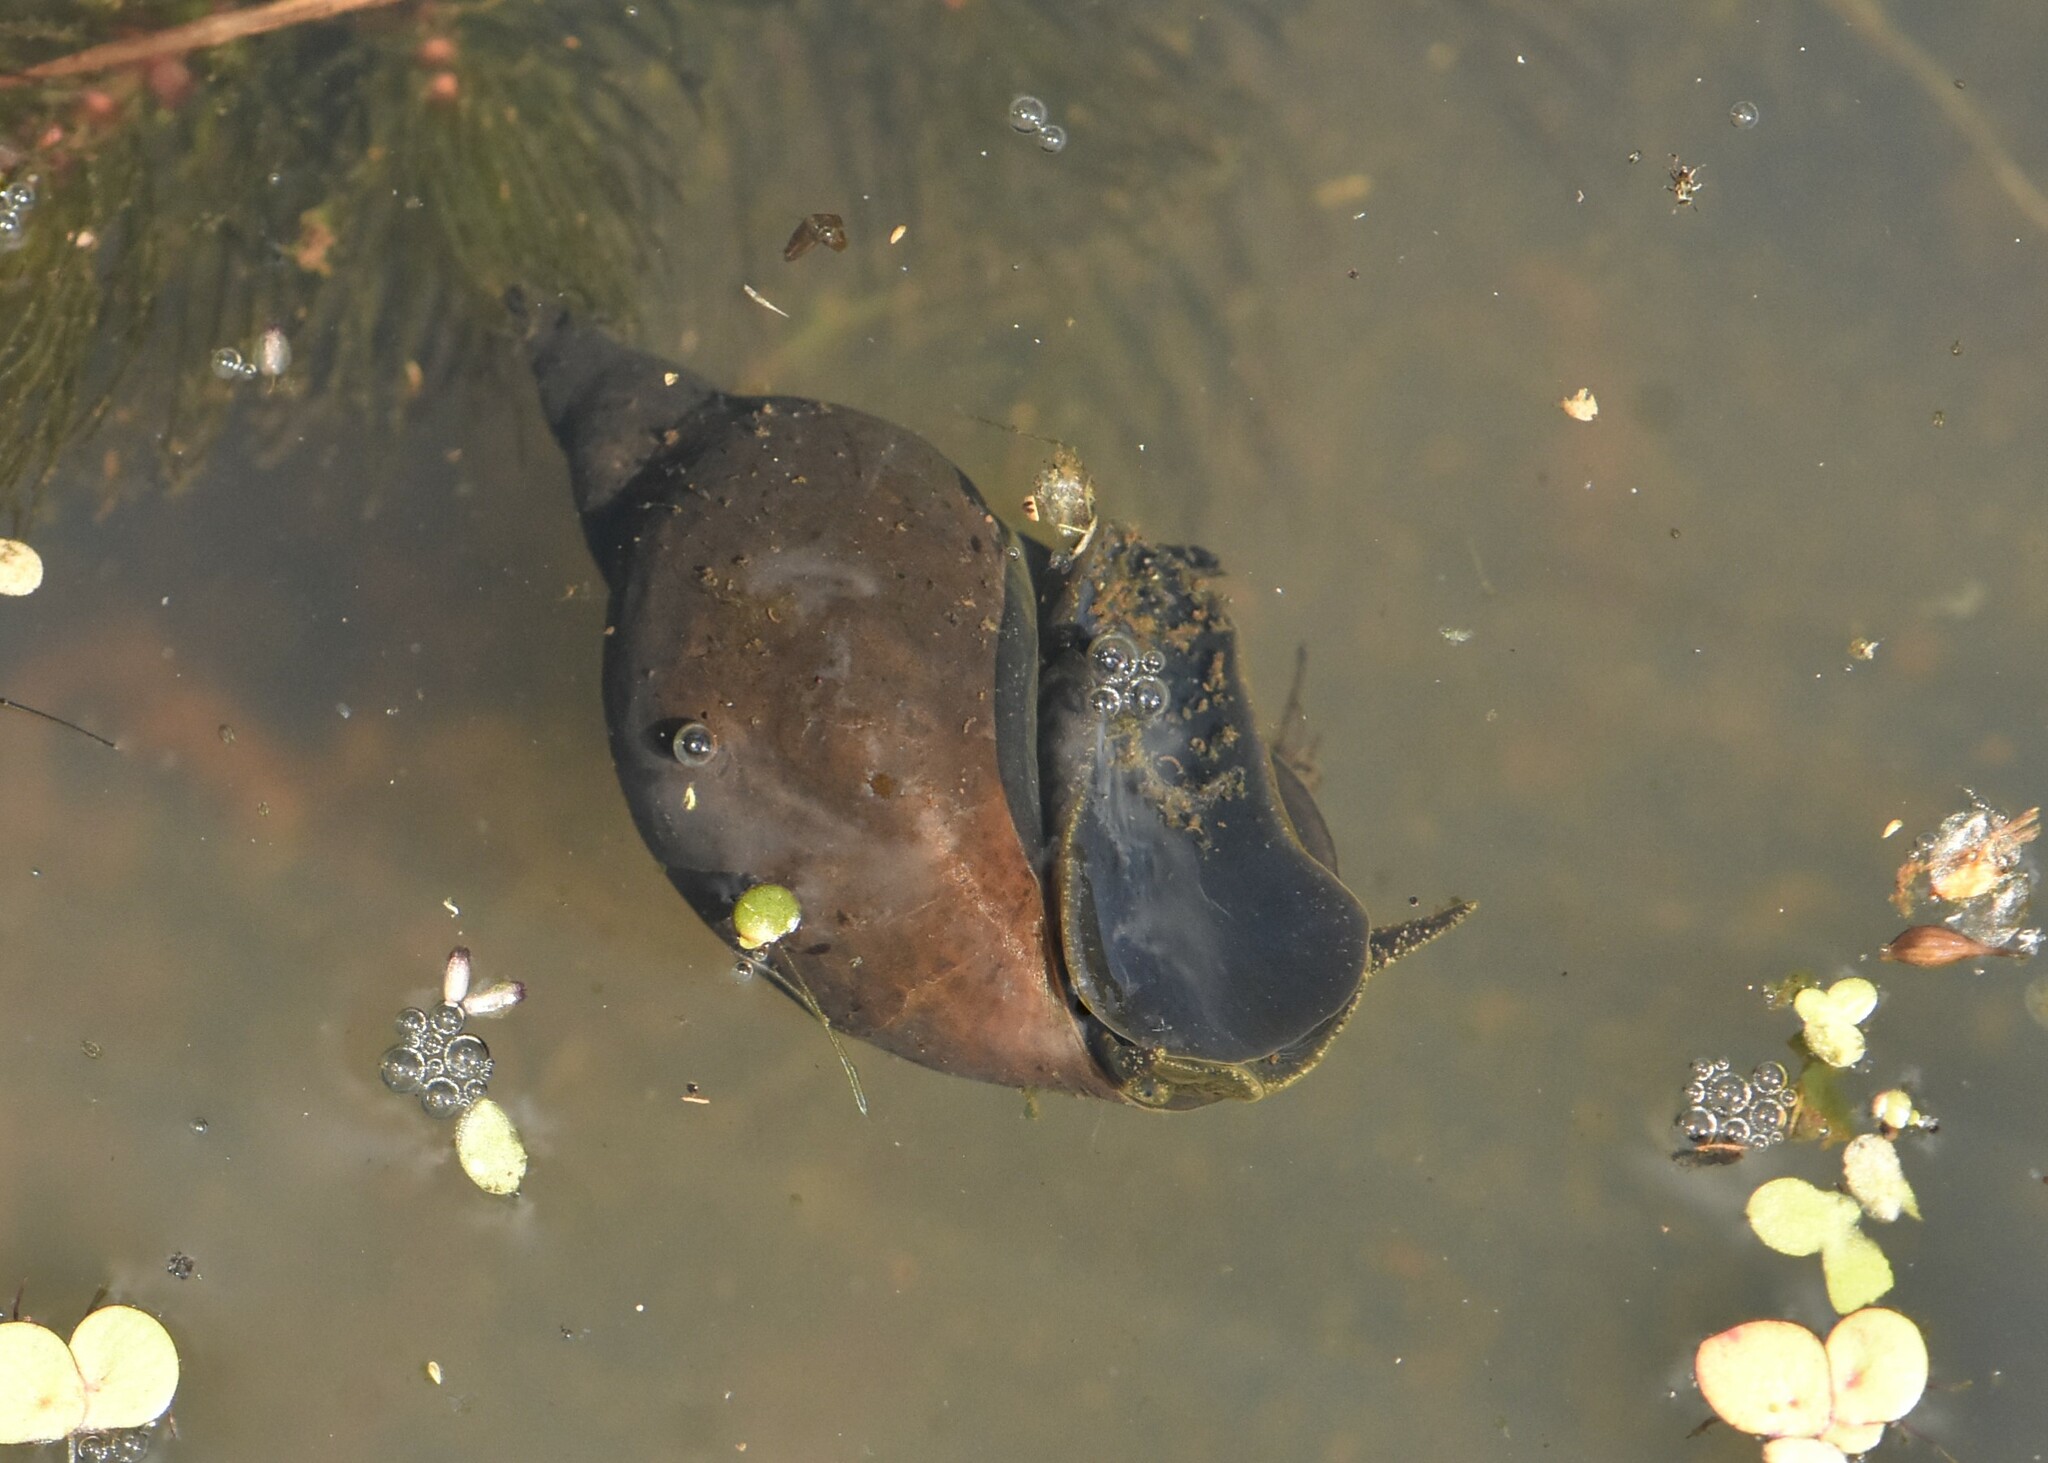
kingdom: Animalia
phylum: Mollusca
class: Gastropoda
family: Lymnaeidae
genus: Lymnaea
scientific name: Lymnaea stagnalis
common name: Great pond snail
